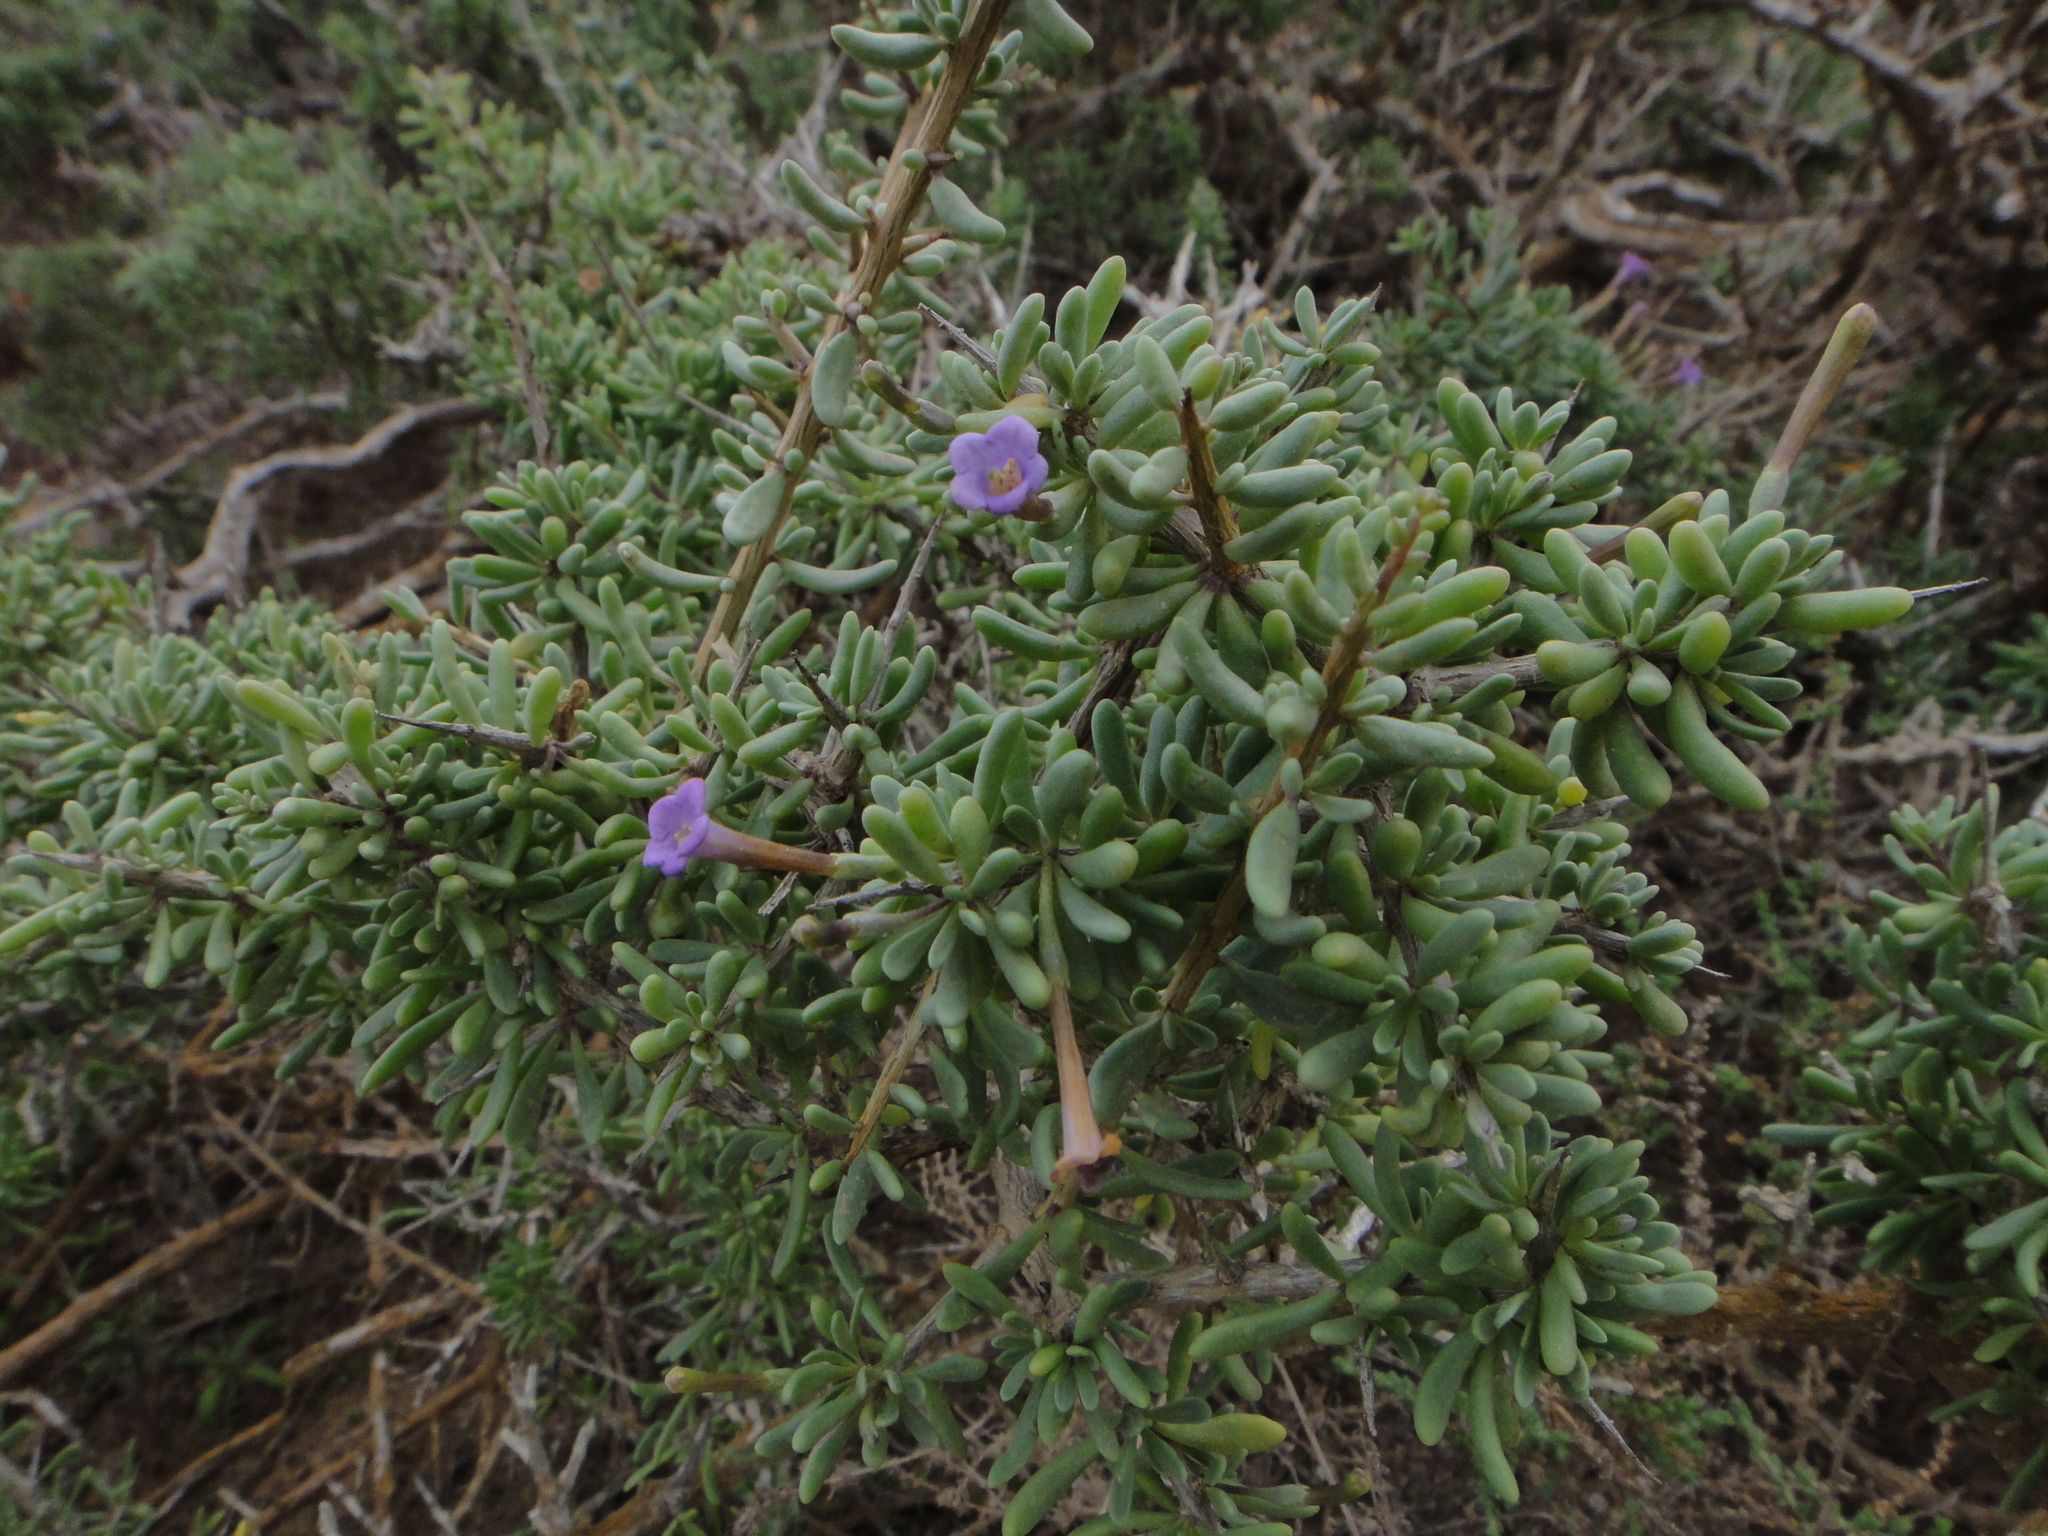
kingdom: Plantae
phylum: Tracheophyta
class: Magnoliopsida
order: Solanales
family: Solanaceae
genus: Lycium
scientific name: Lycium intricatum
